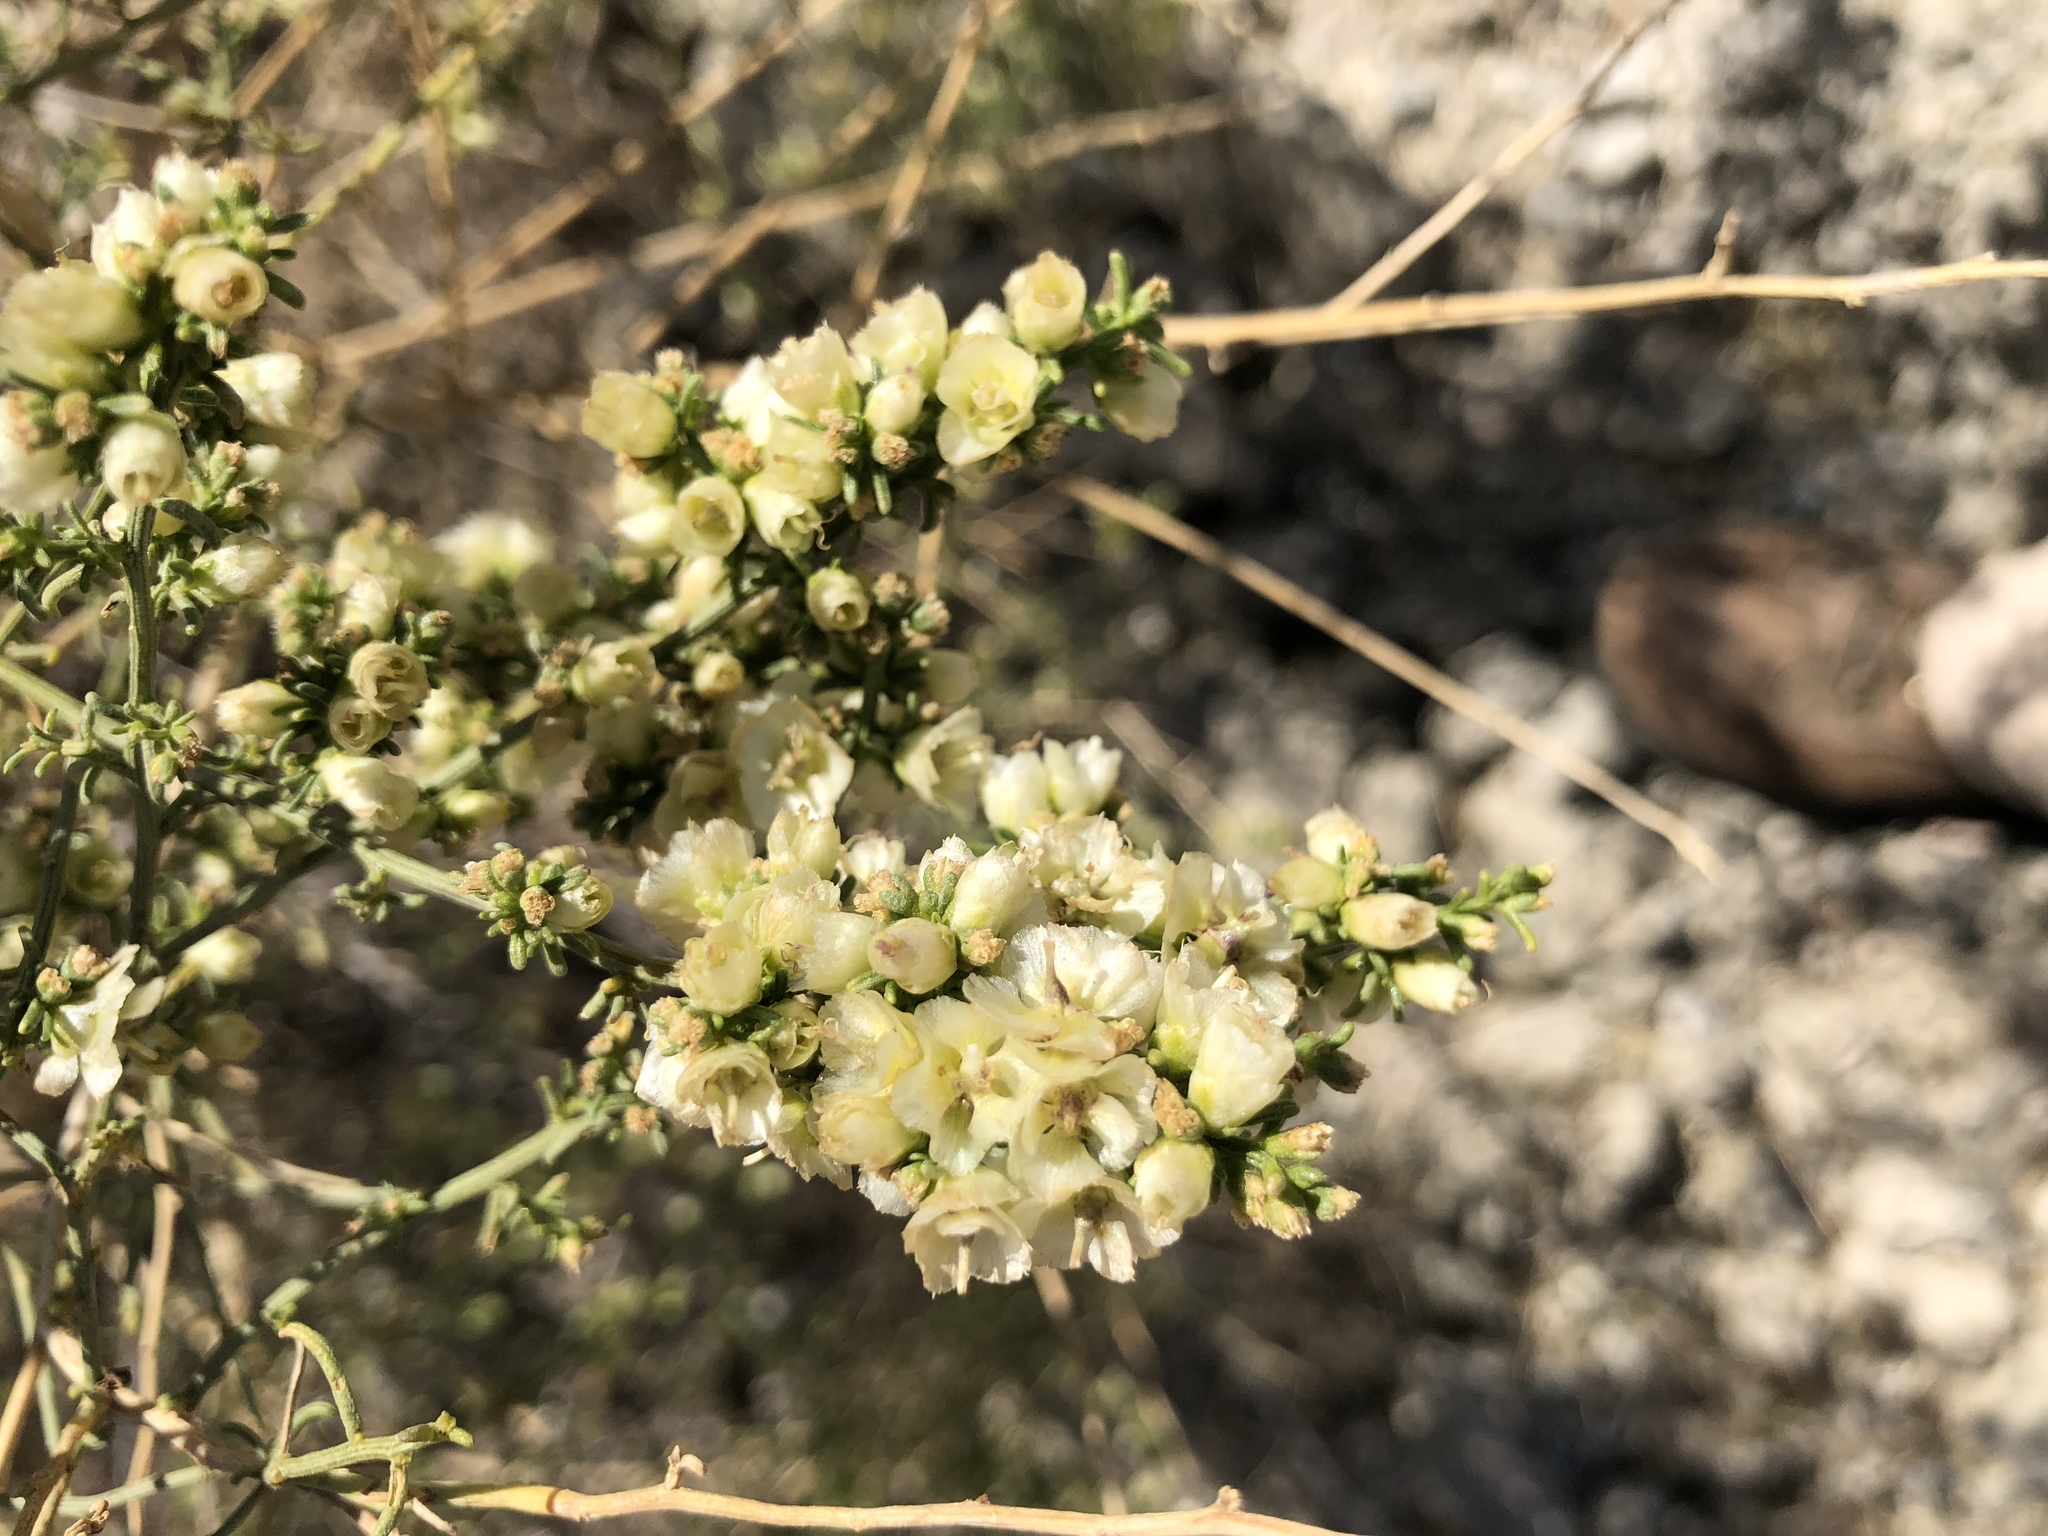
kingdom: Plantae
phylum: Tracheophyta
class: Magnoliopsida
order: Asterales
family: Asteraceae
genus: Ambrosia
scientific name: Ambrosia salsola
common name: Burrobrush
